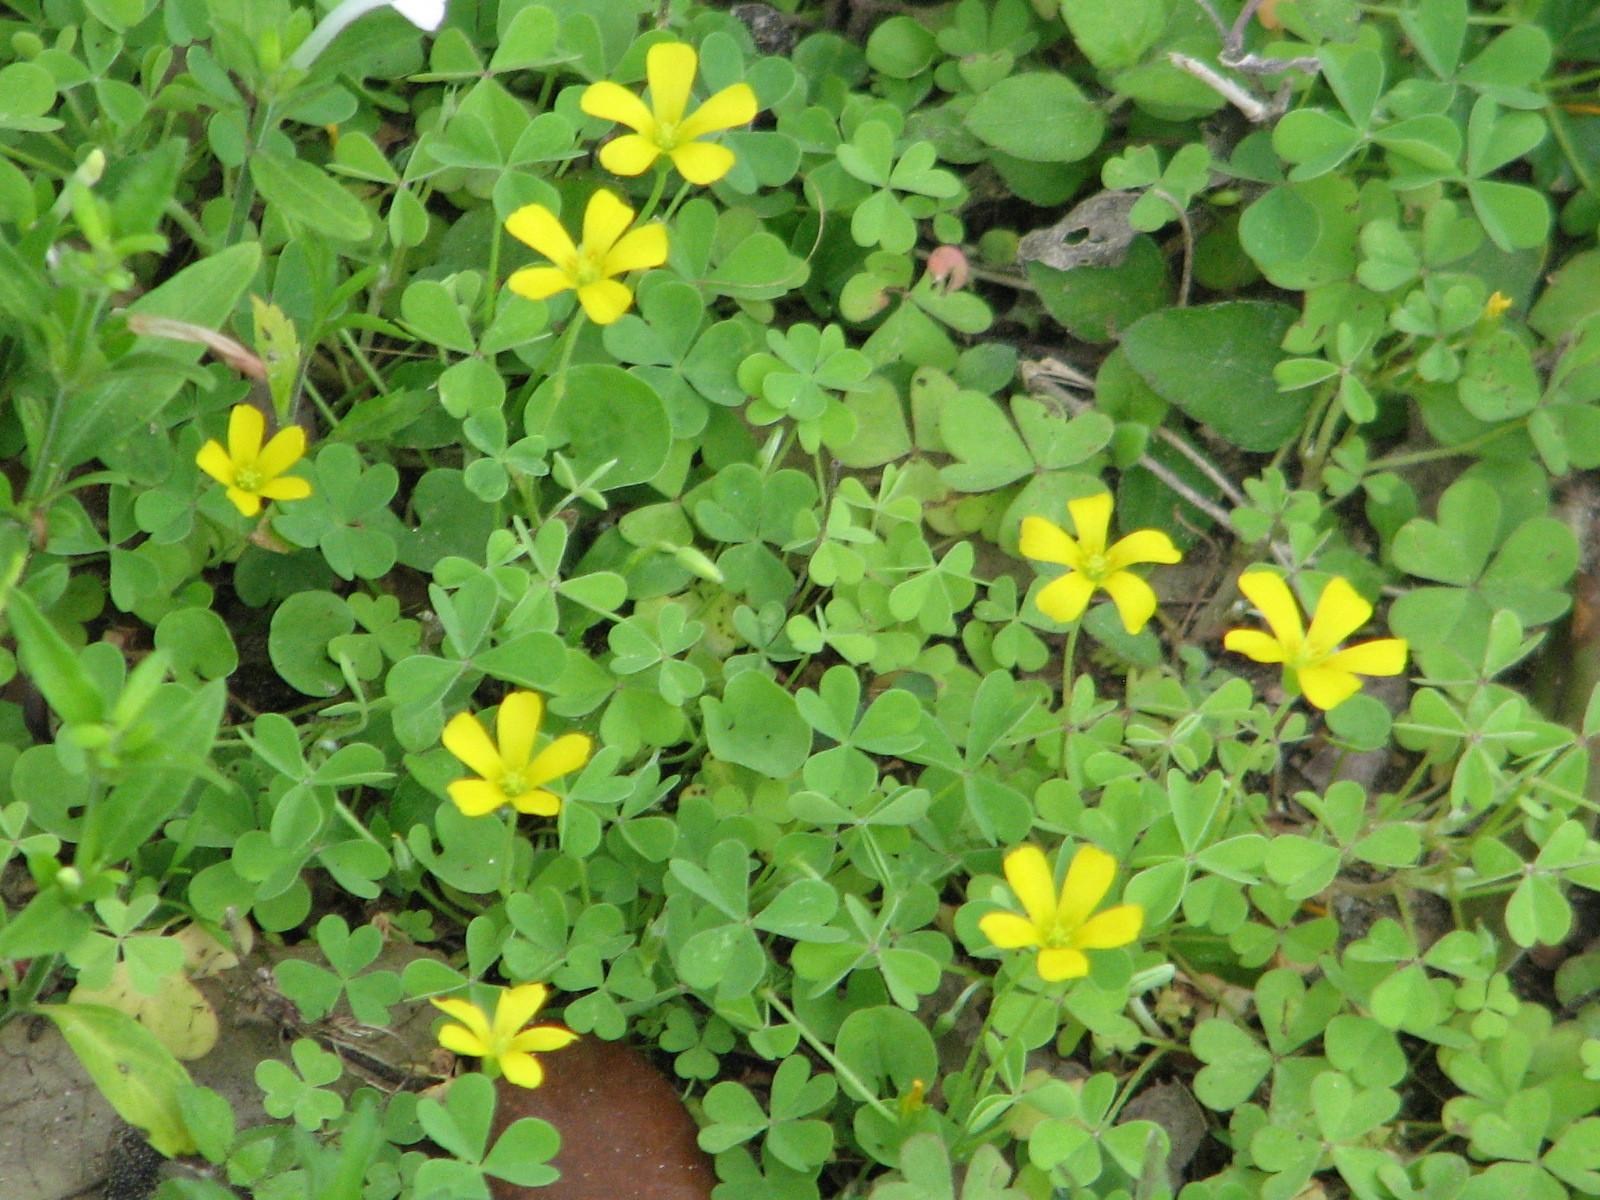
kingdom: Plantae
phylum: Tracheophyta
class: Magnoliopsida
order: Oxalidales
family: Oxalidaceae
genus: Oxalis
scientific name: Oxalis corniculata
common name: Procumbent yellow-sorrel
